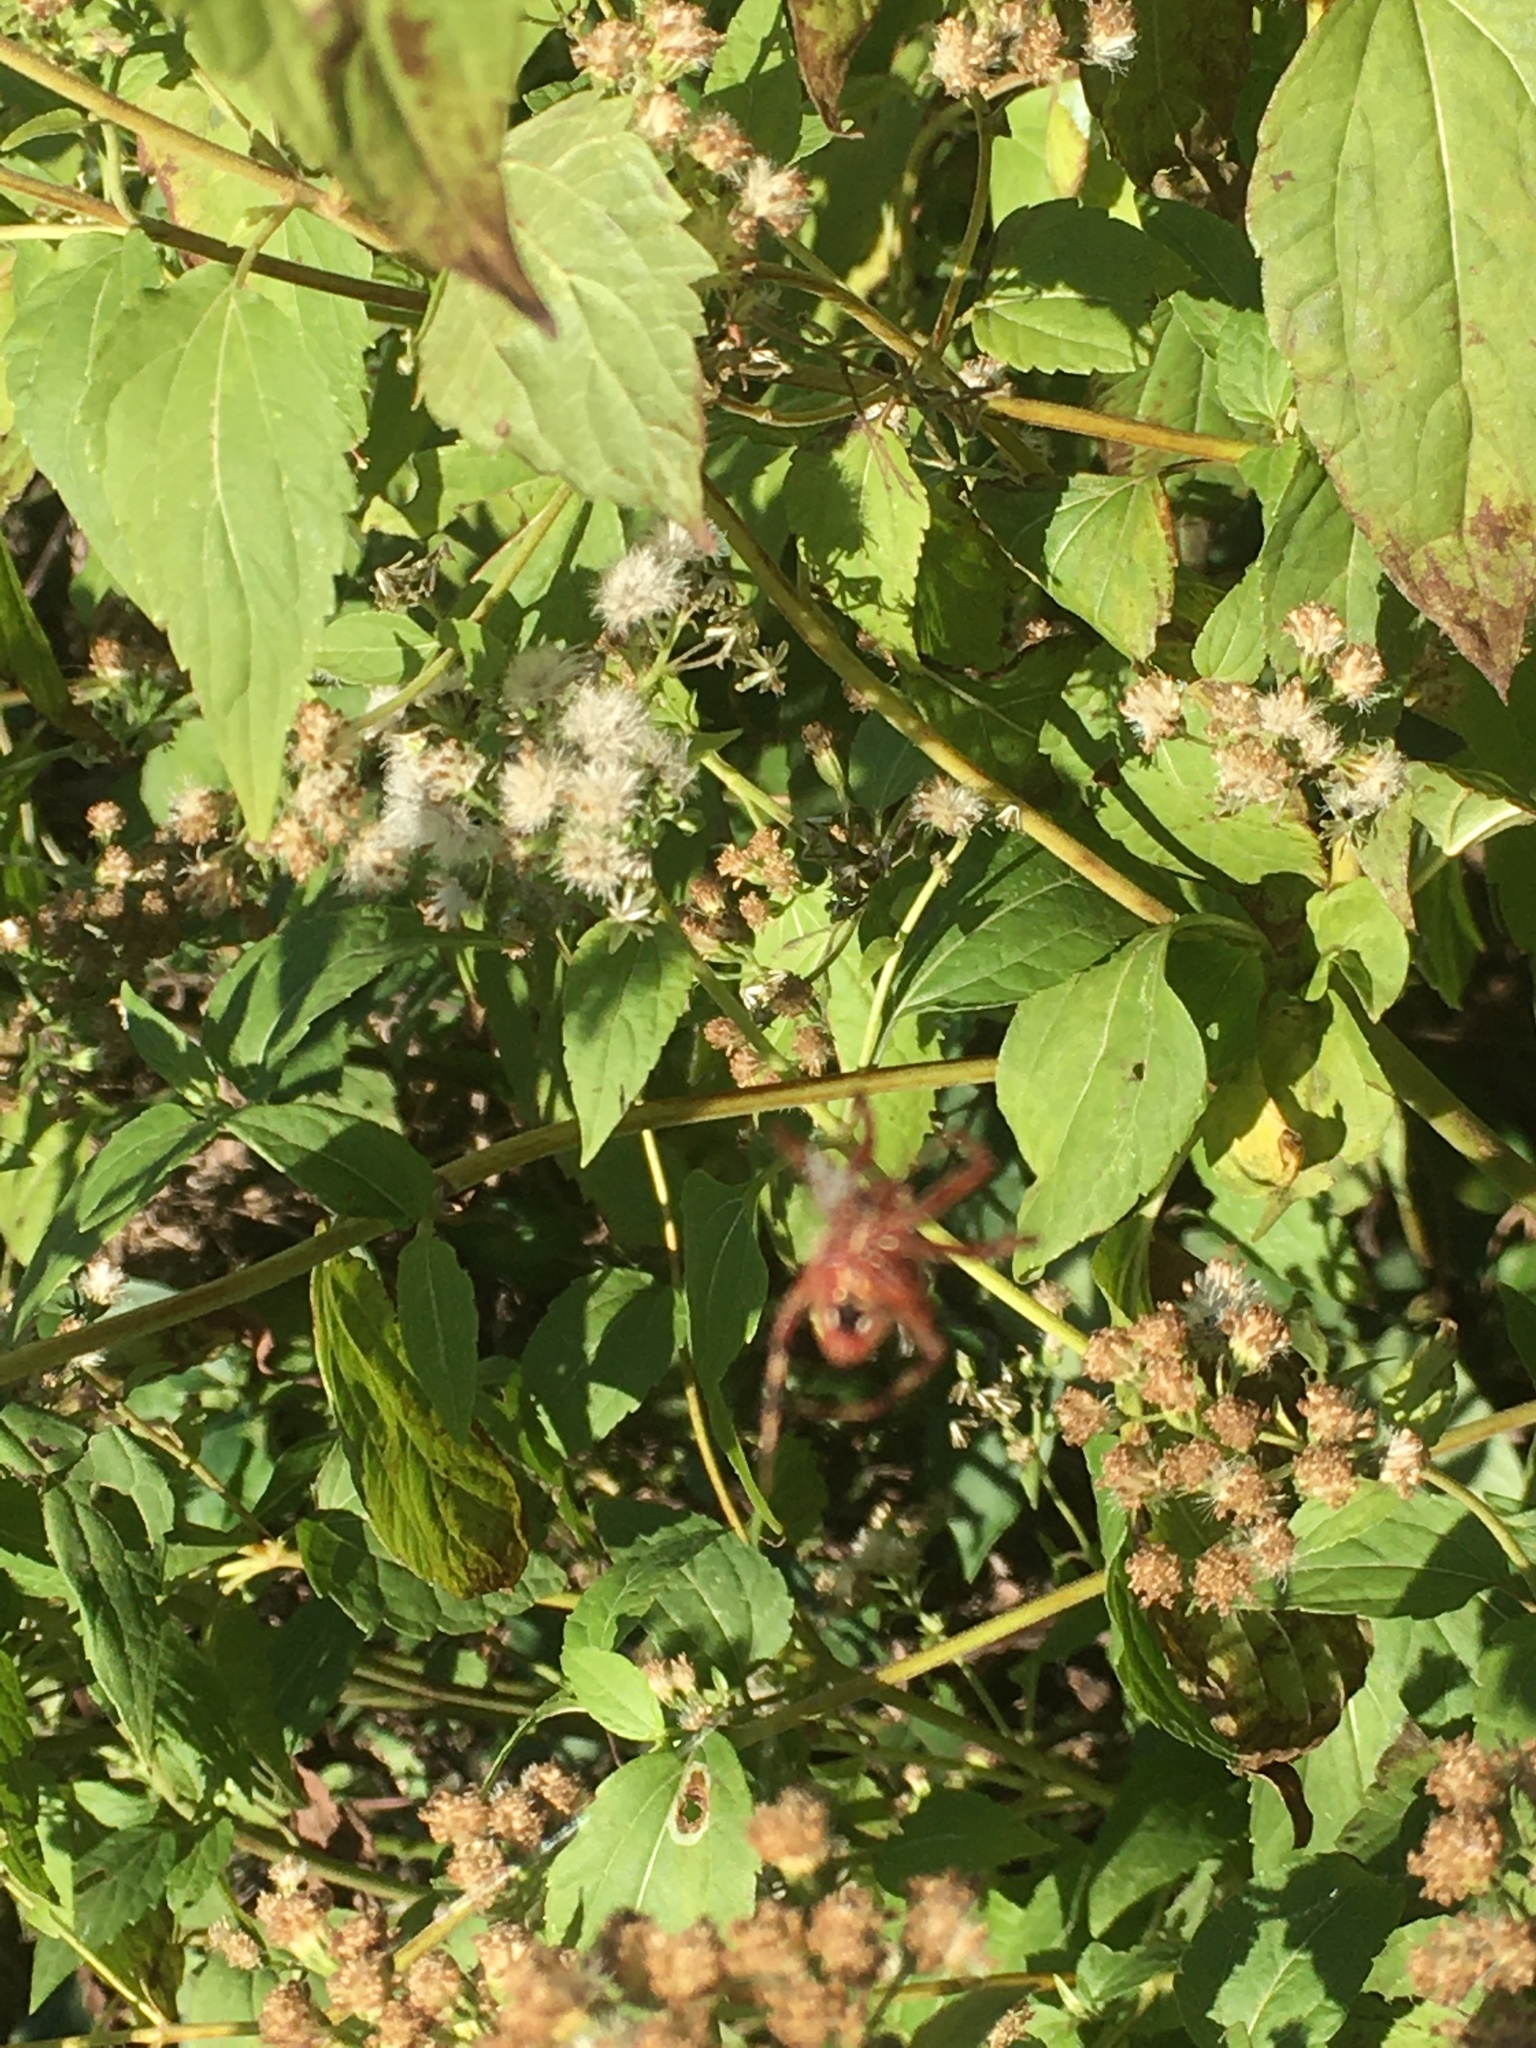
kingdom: Animalia
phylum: Arthropoda
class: Arachnida
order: Araneae
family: Araneidae
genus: Neoscona
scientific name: Neoscona crucifera
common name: Spotted orbweaver
